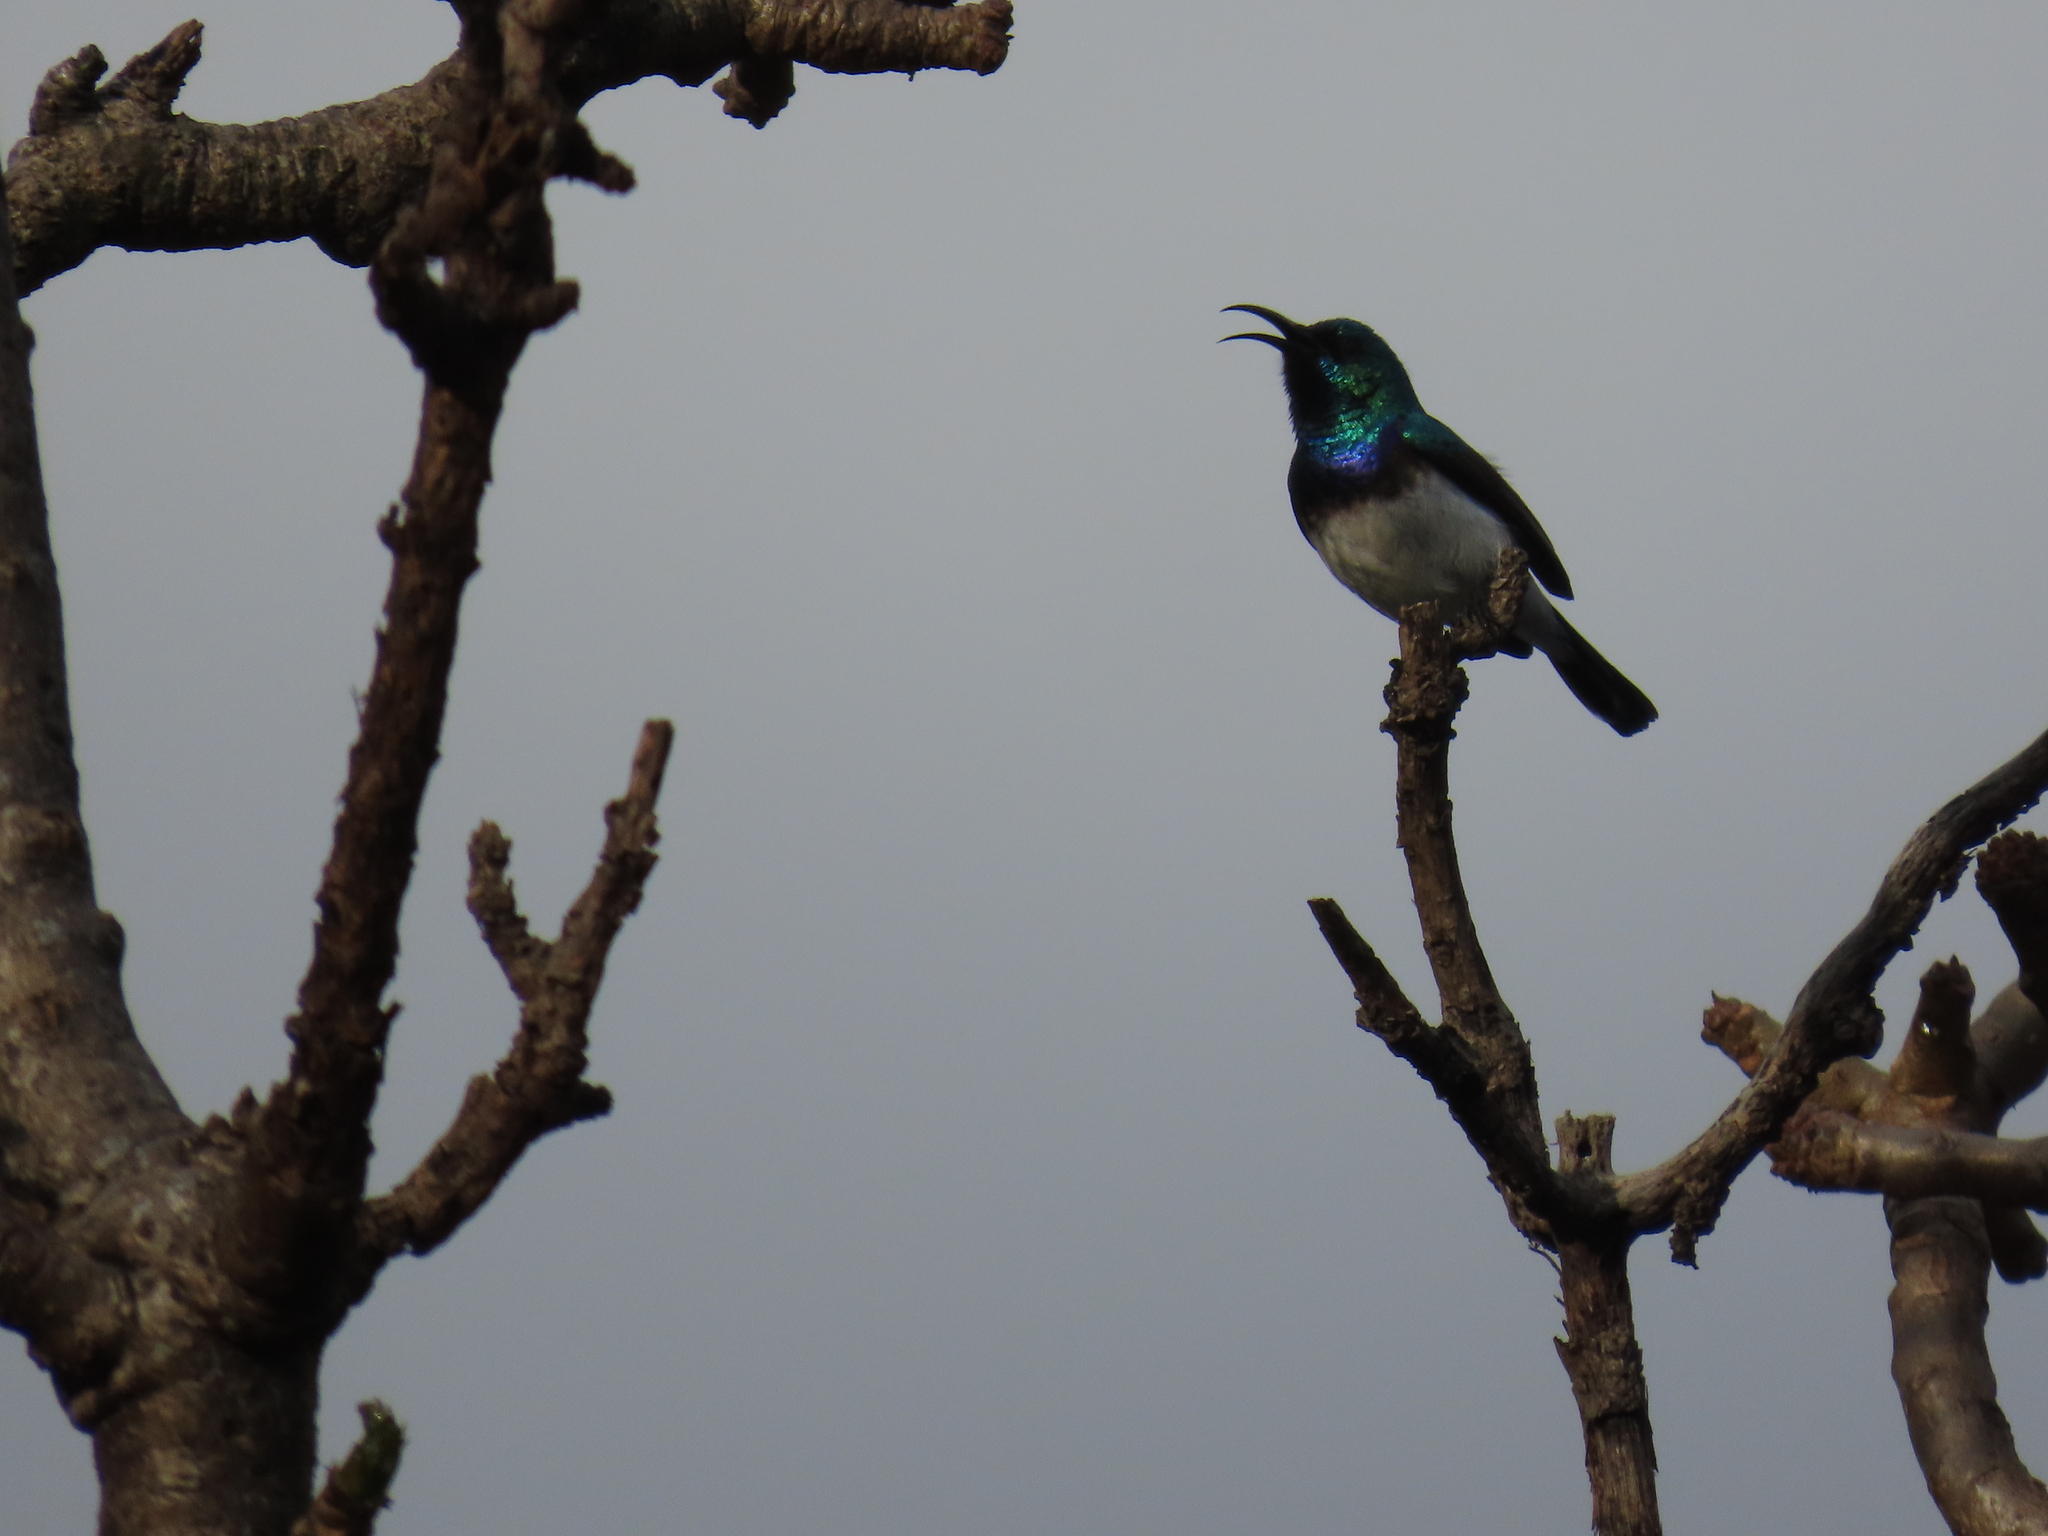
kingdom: Animalia
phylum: Chordata
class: Aves
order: Passeriformes
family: Nectariniidae
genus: Cinnyris
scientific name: Cinnyris talatala
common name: White-bellied sunbird
